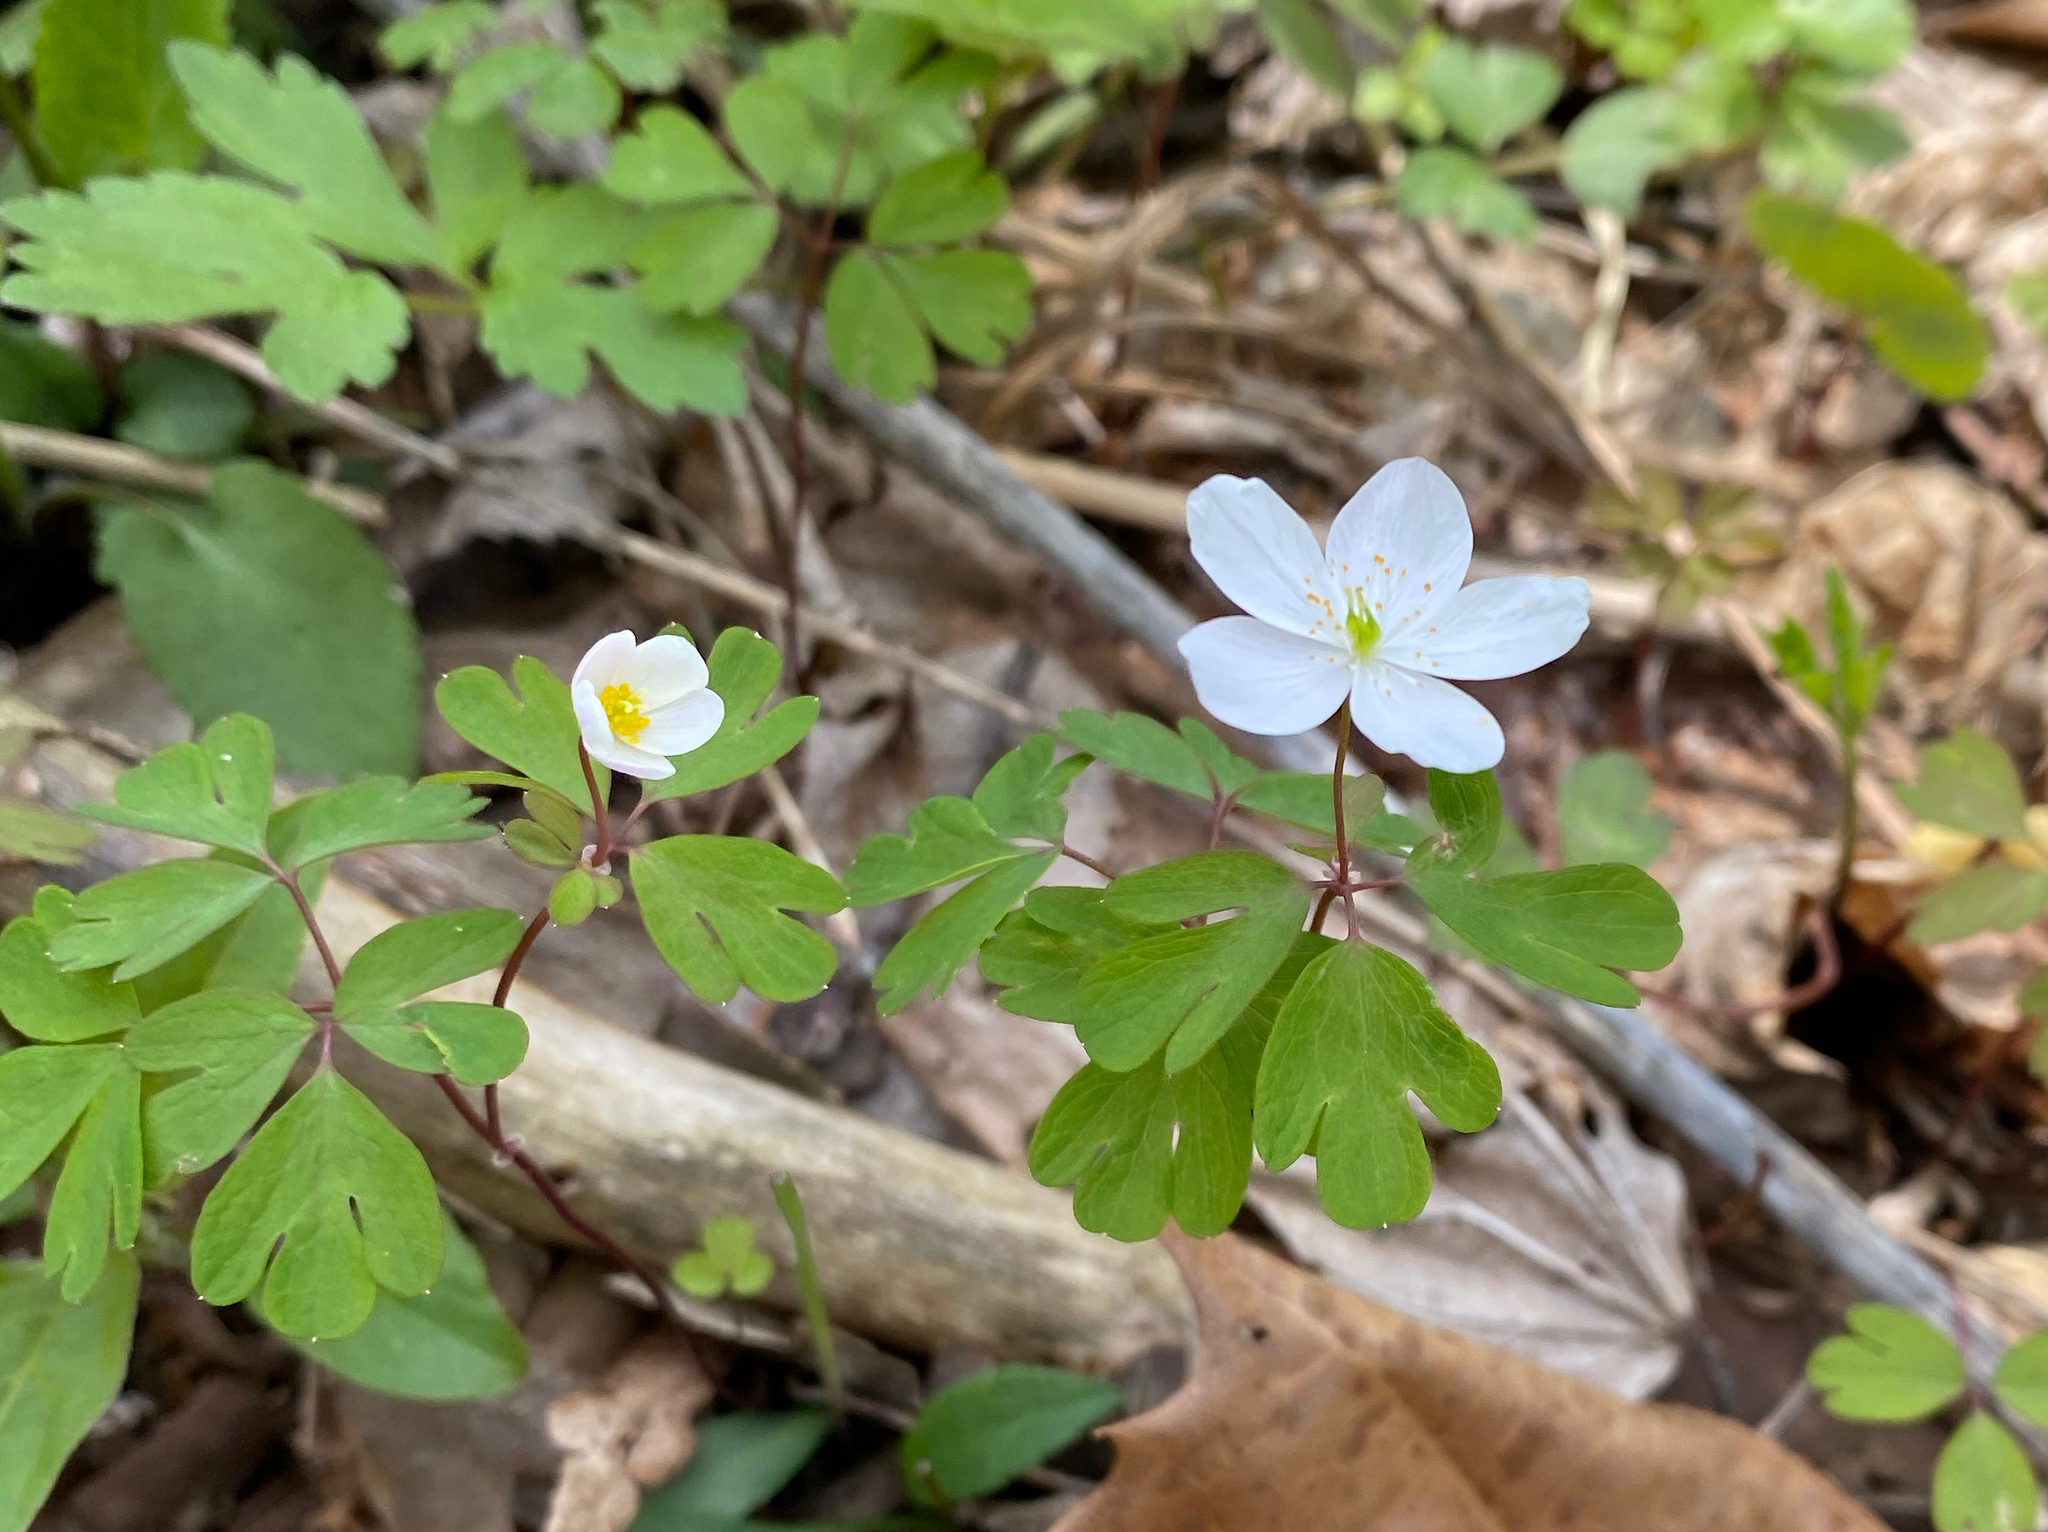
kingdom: Plantae
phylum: Tracheophyta
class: Magnoliopsida
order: Ranunculales
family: Ranunculaceae
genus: Enemion
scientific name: Enemion biternatum
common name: Eastern false rue-anemone
